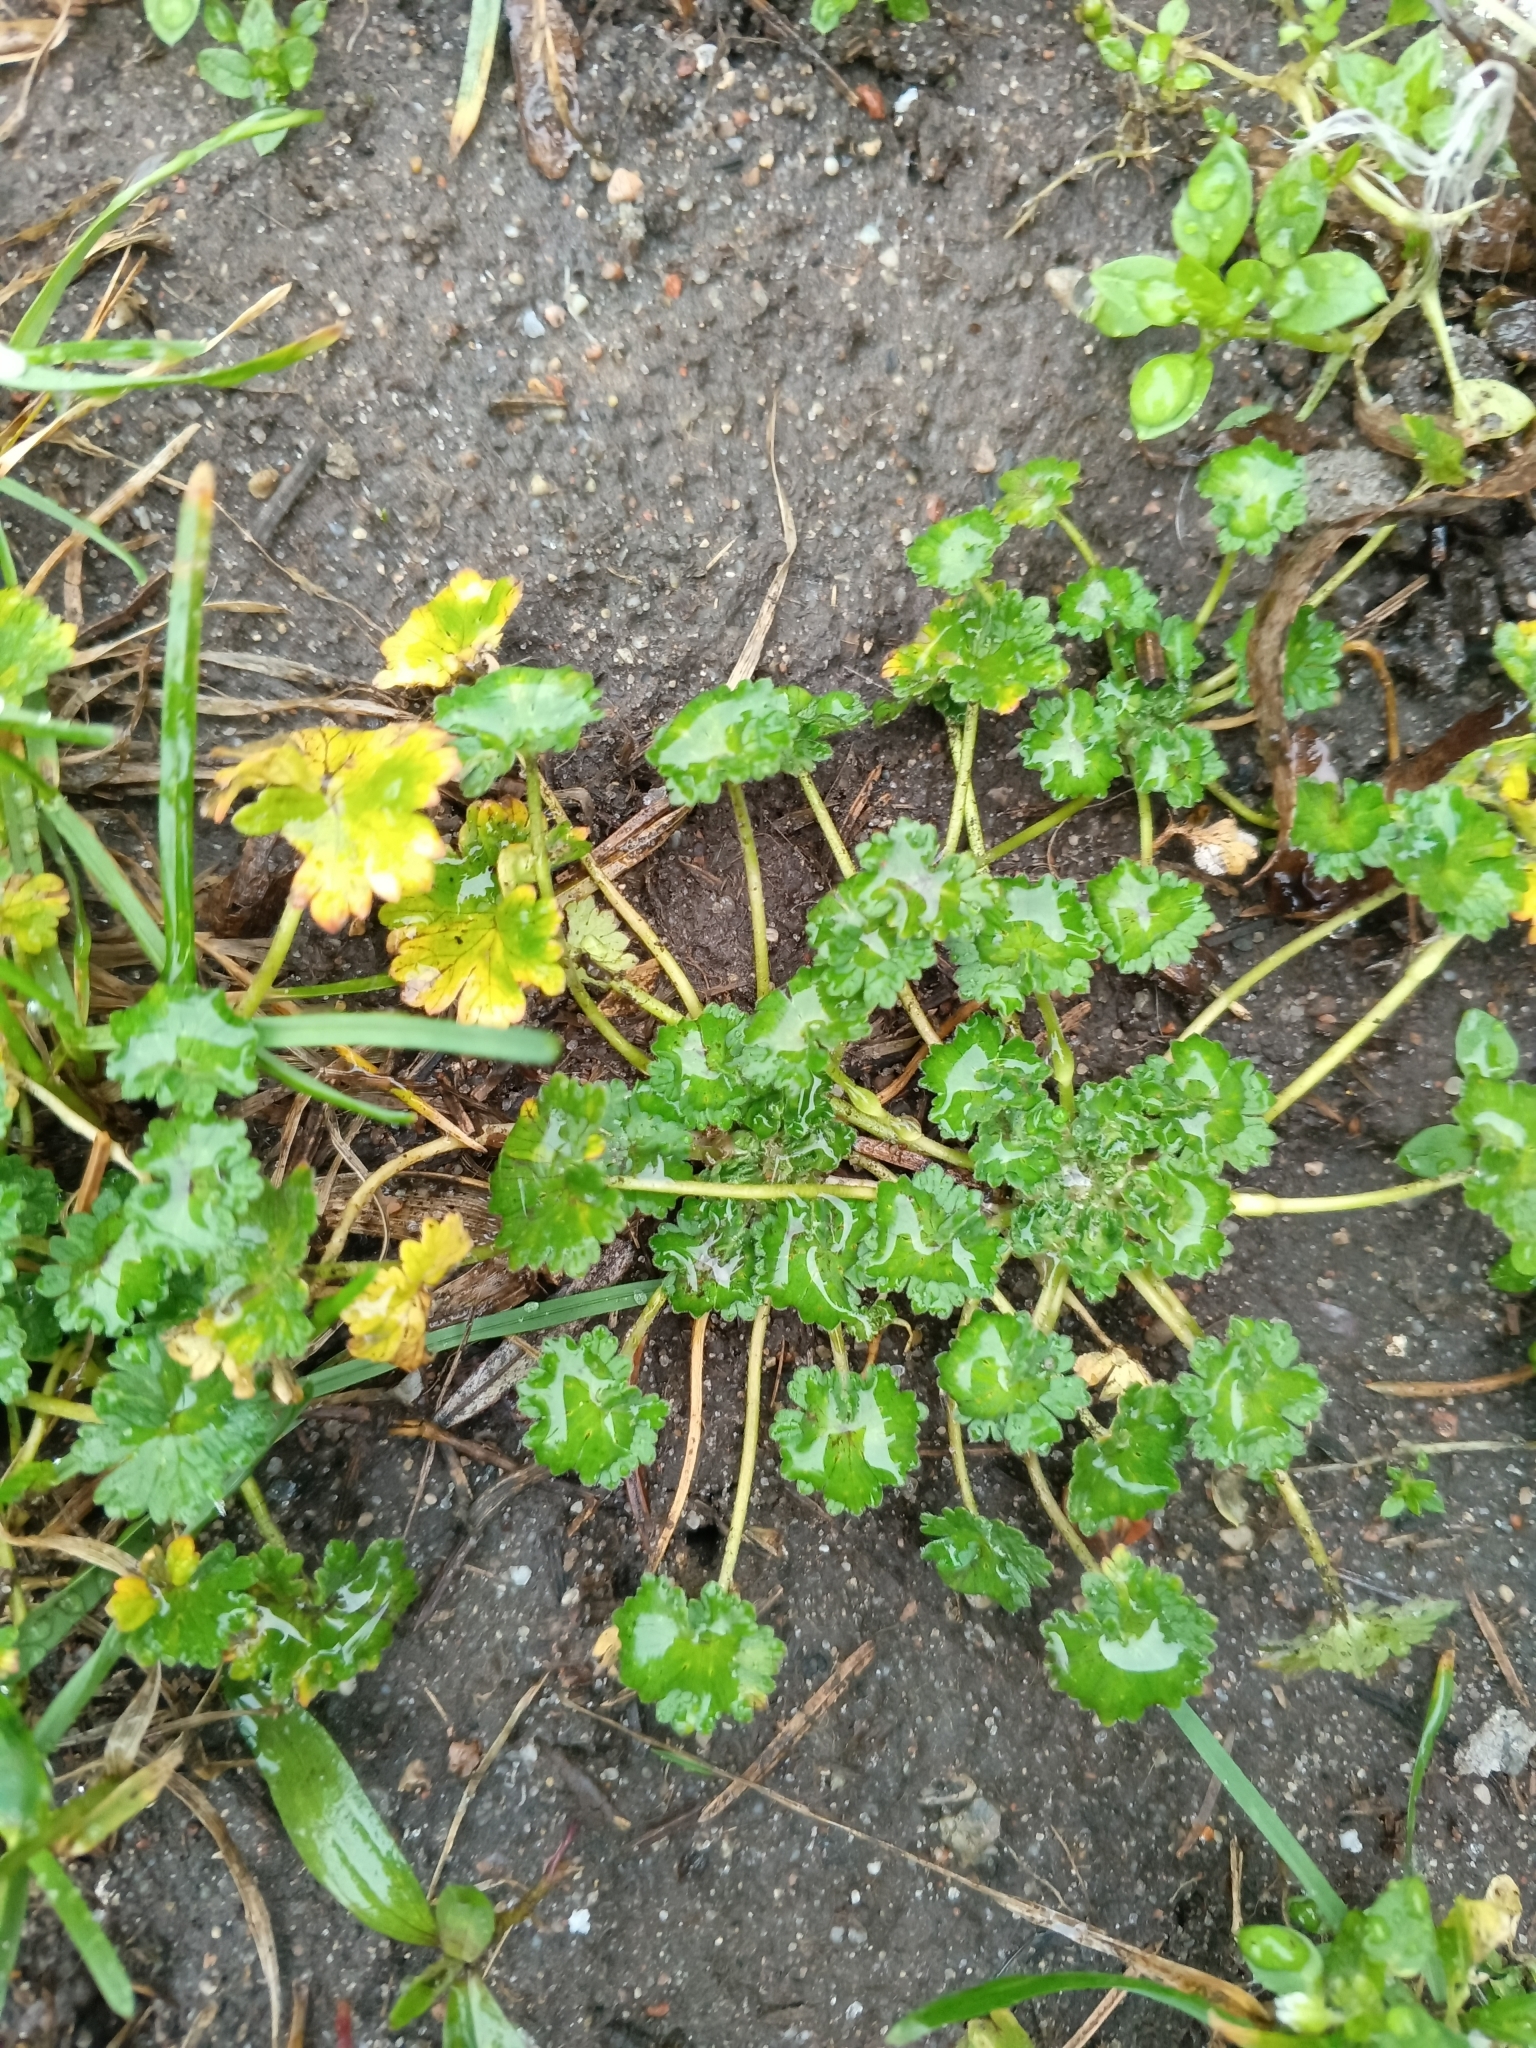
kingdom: Plantae
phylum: Tracheophyta
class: Magnoliopsida
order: Geraniales
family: Geraniaceae
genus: Geranium
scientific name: Geranium pusillum
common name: Small geranium
